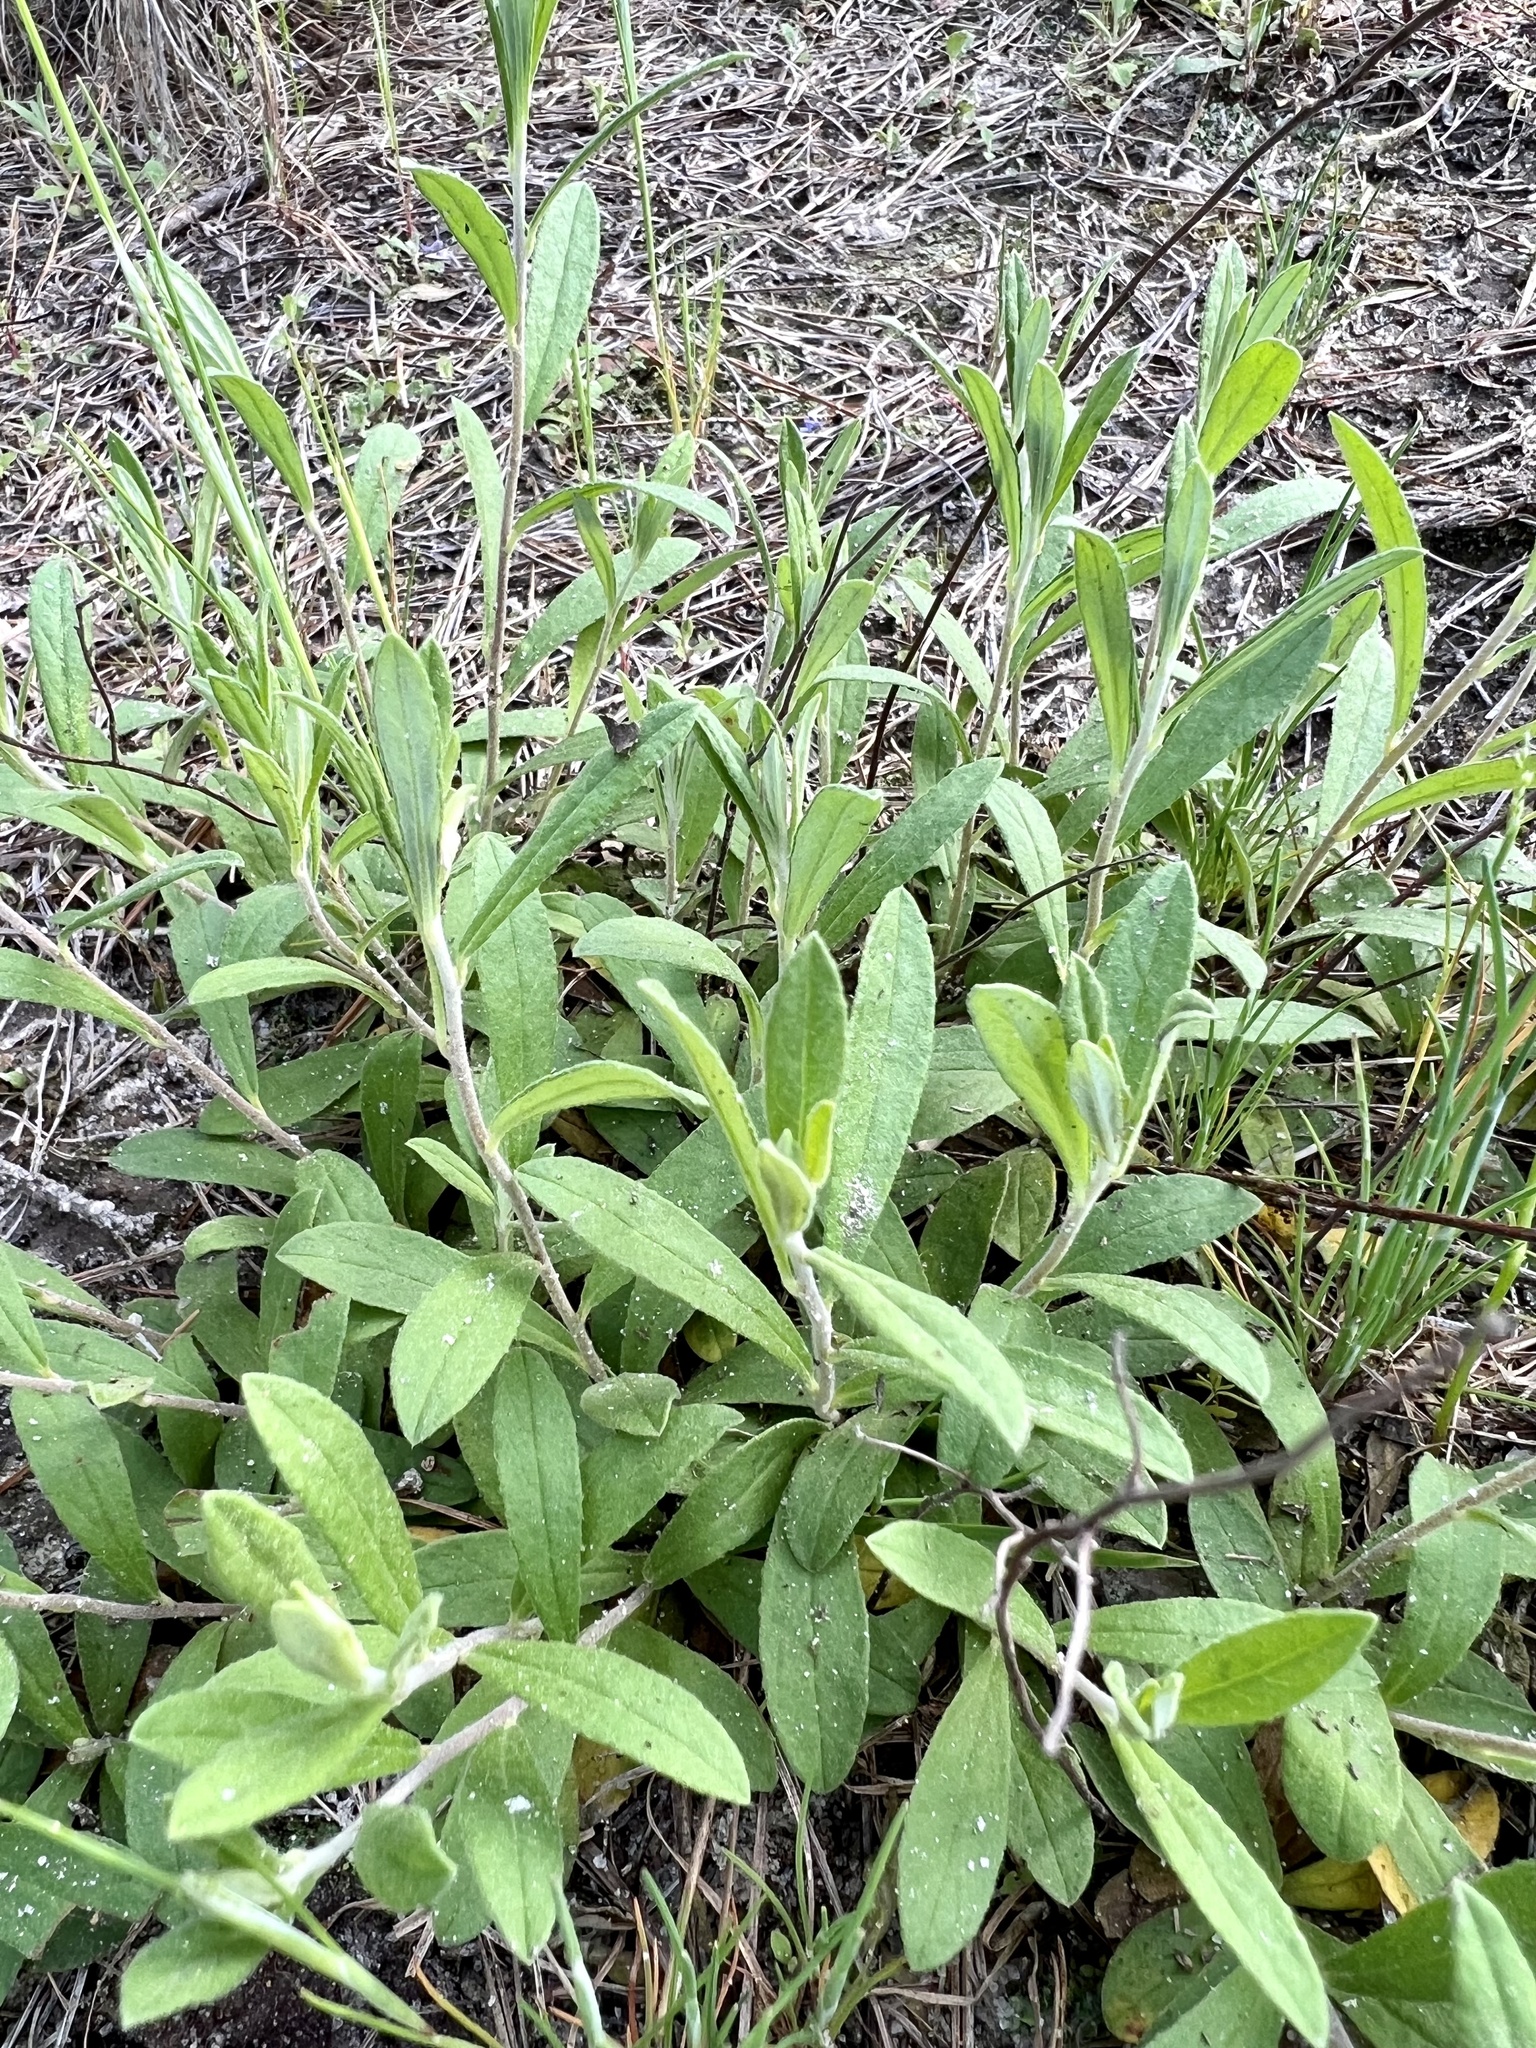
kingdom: Plantae
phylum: Tracheophyta
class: Magnoliopsida
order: Malvales
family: Cistaceae
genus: Crocanthemum
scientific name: Crocanthemum georgianum
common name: Georgia frostweed
